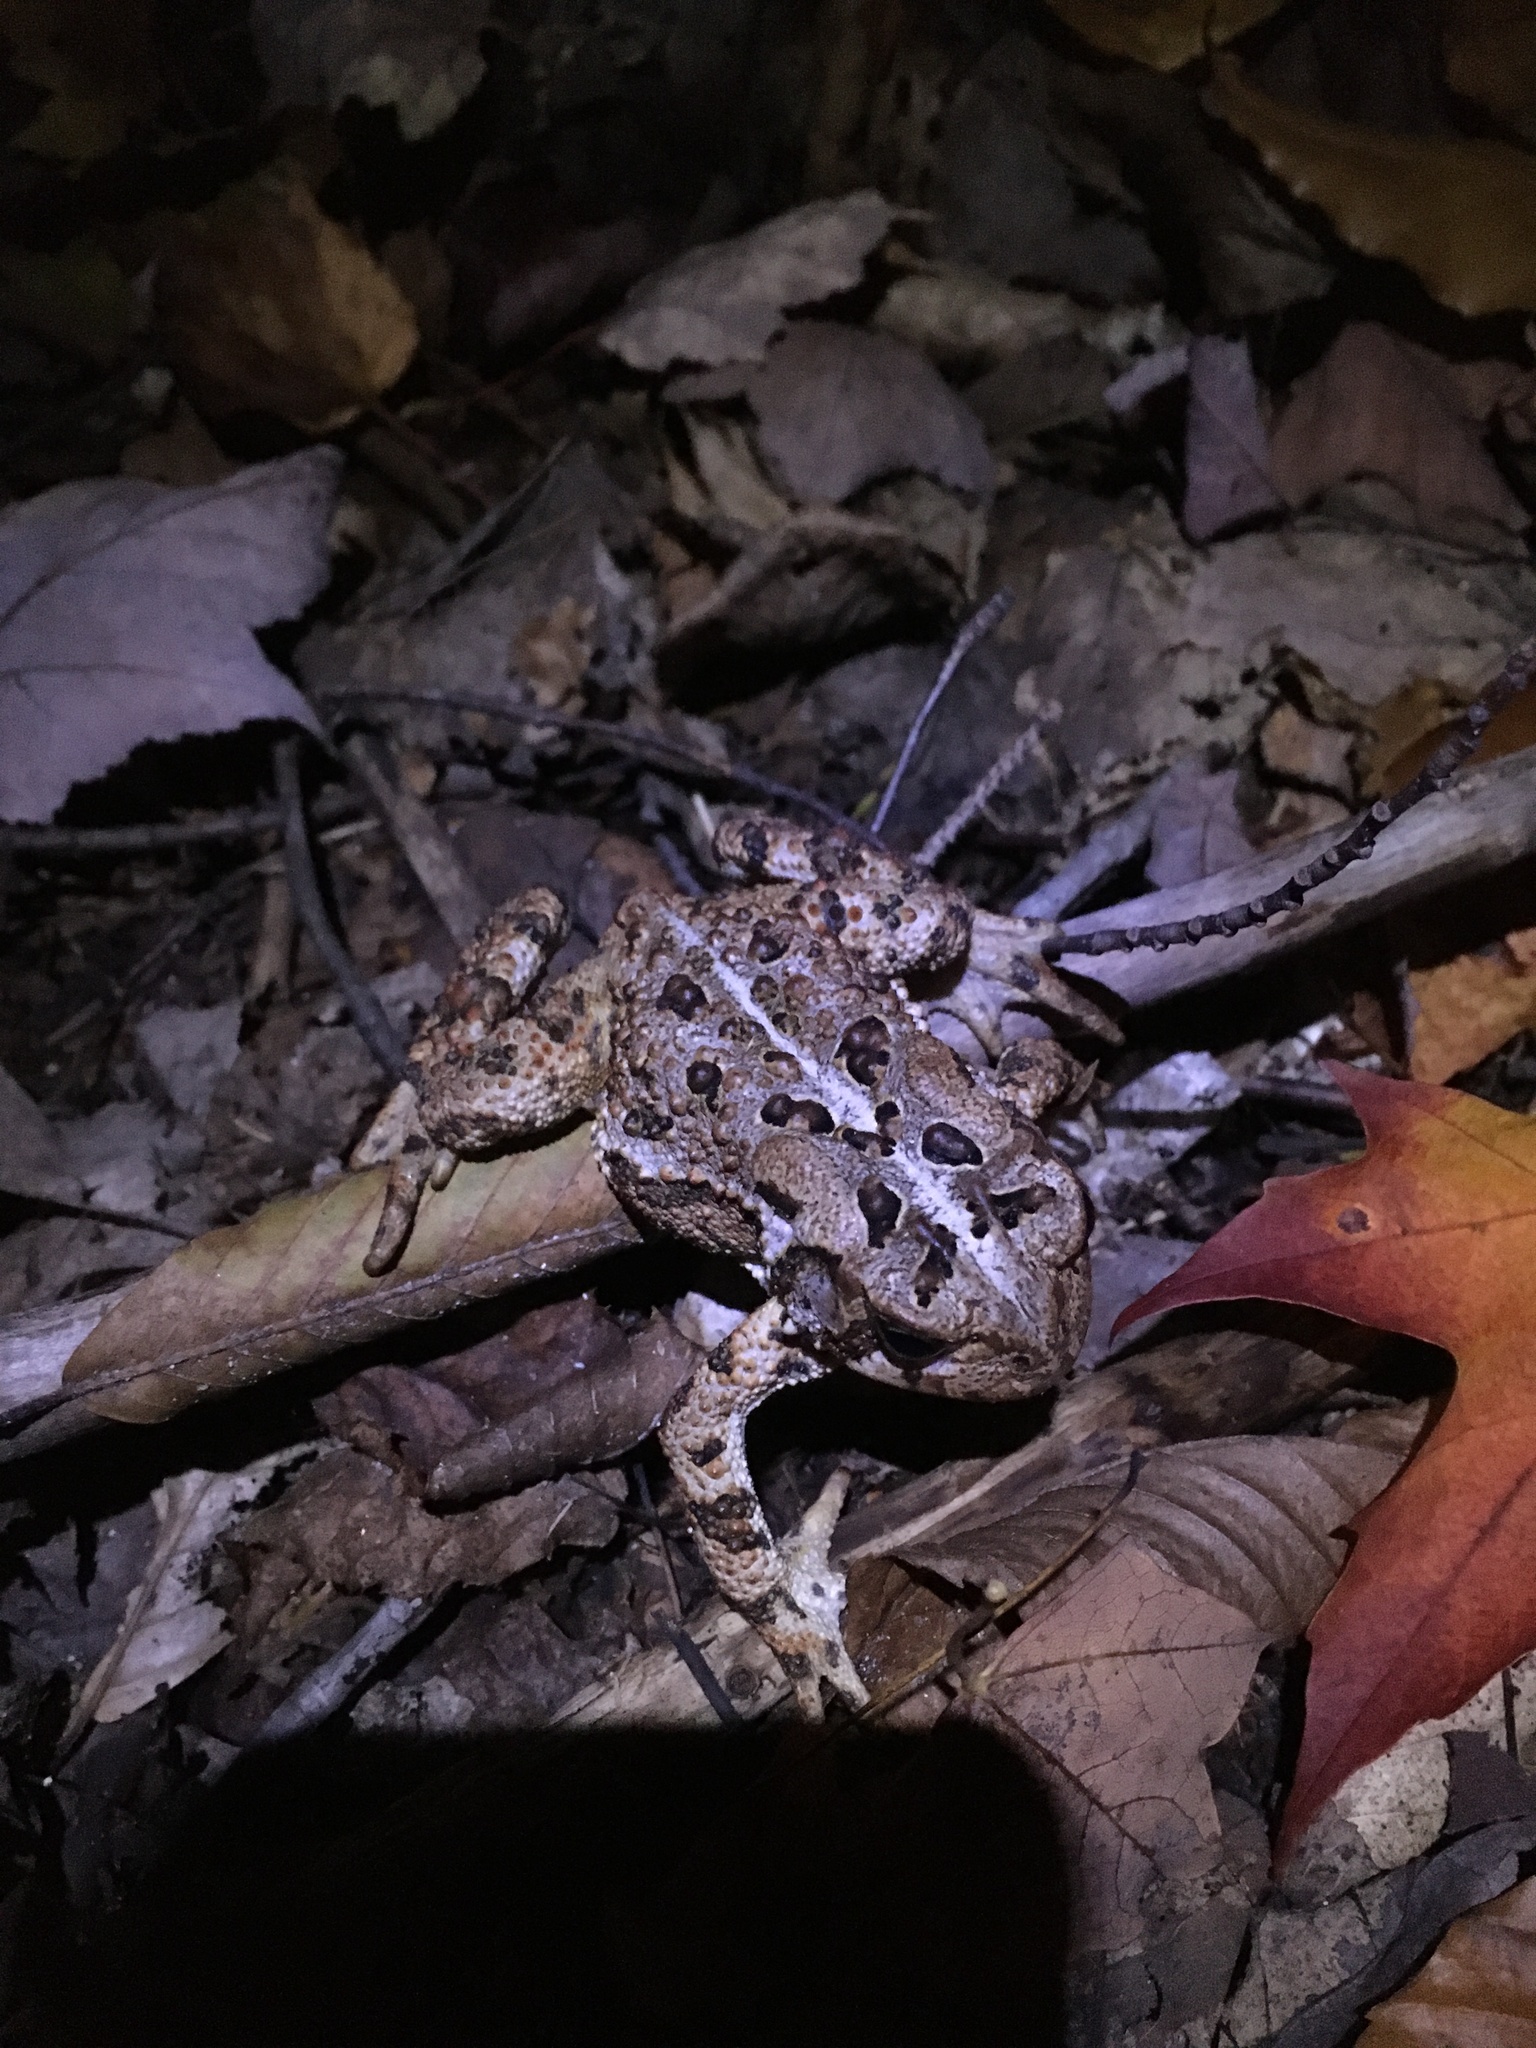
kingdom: Animalia
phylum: Chordata
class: Amphibia
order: Anura
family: Bufonidae
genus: Anaxyrus
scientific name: Anaxyrus americanus
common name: American toad
